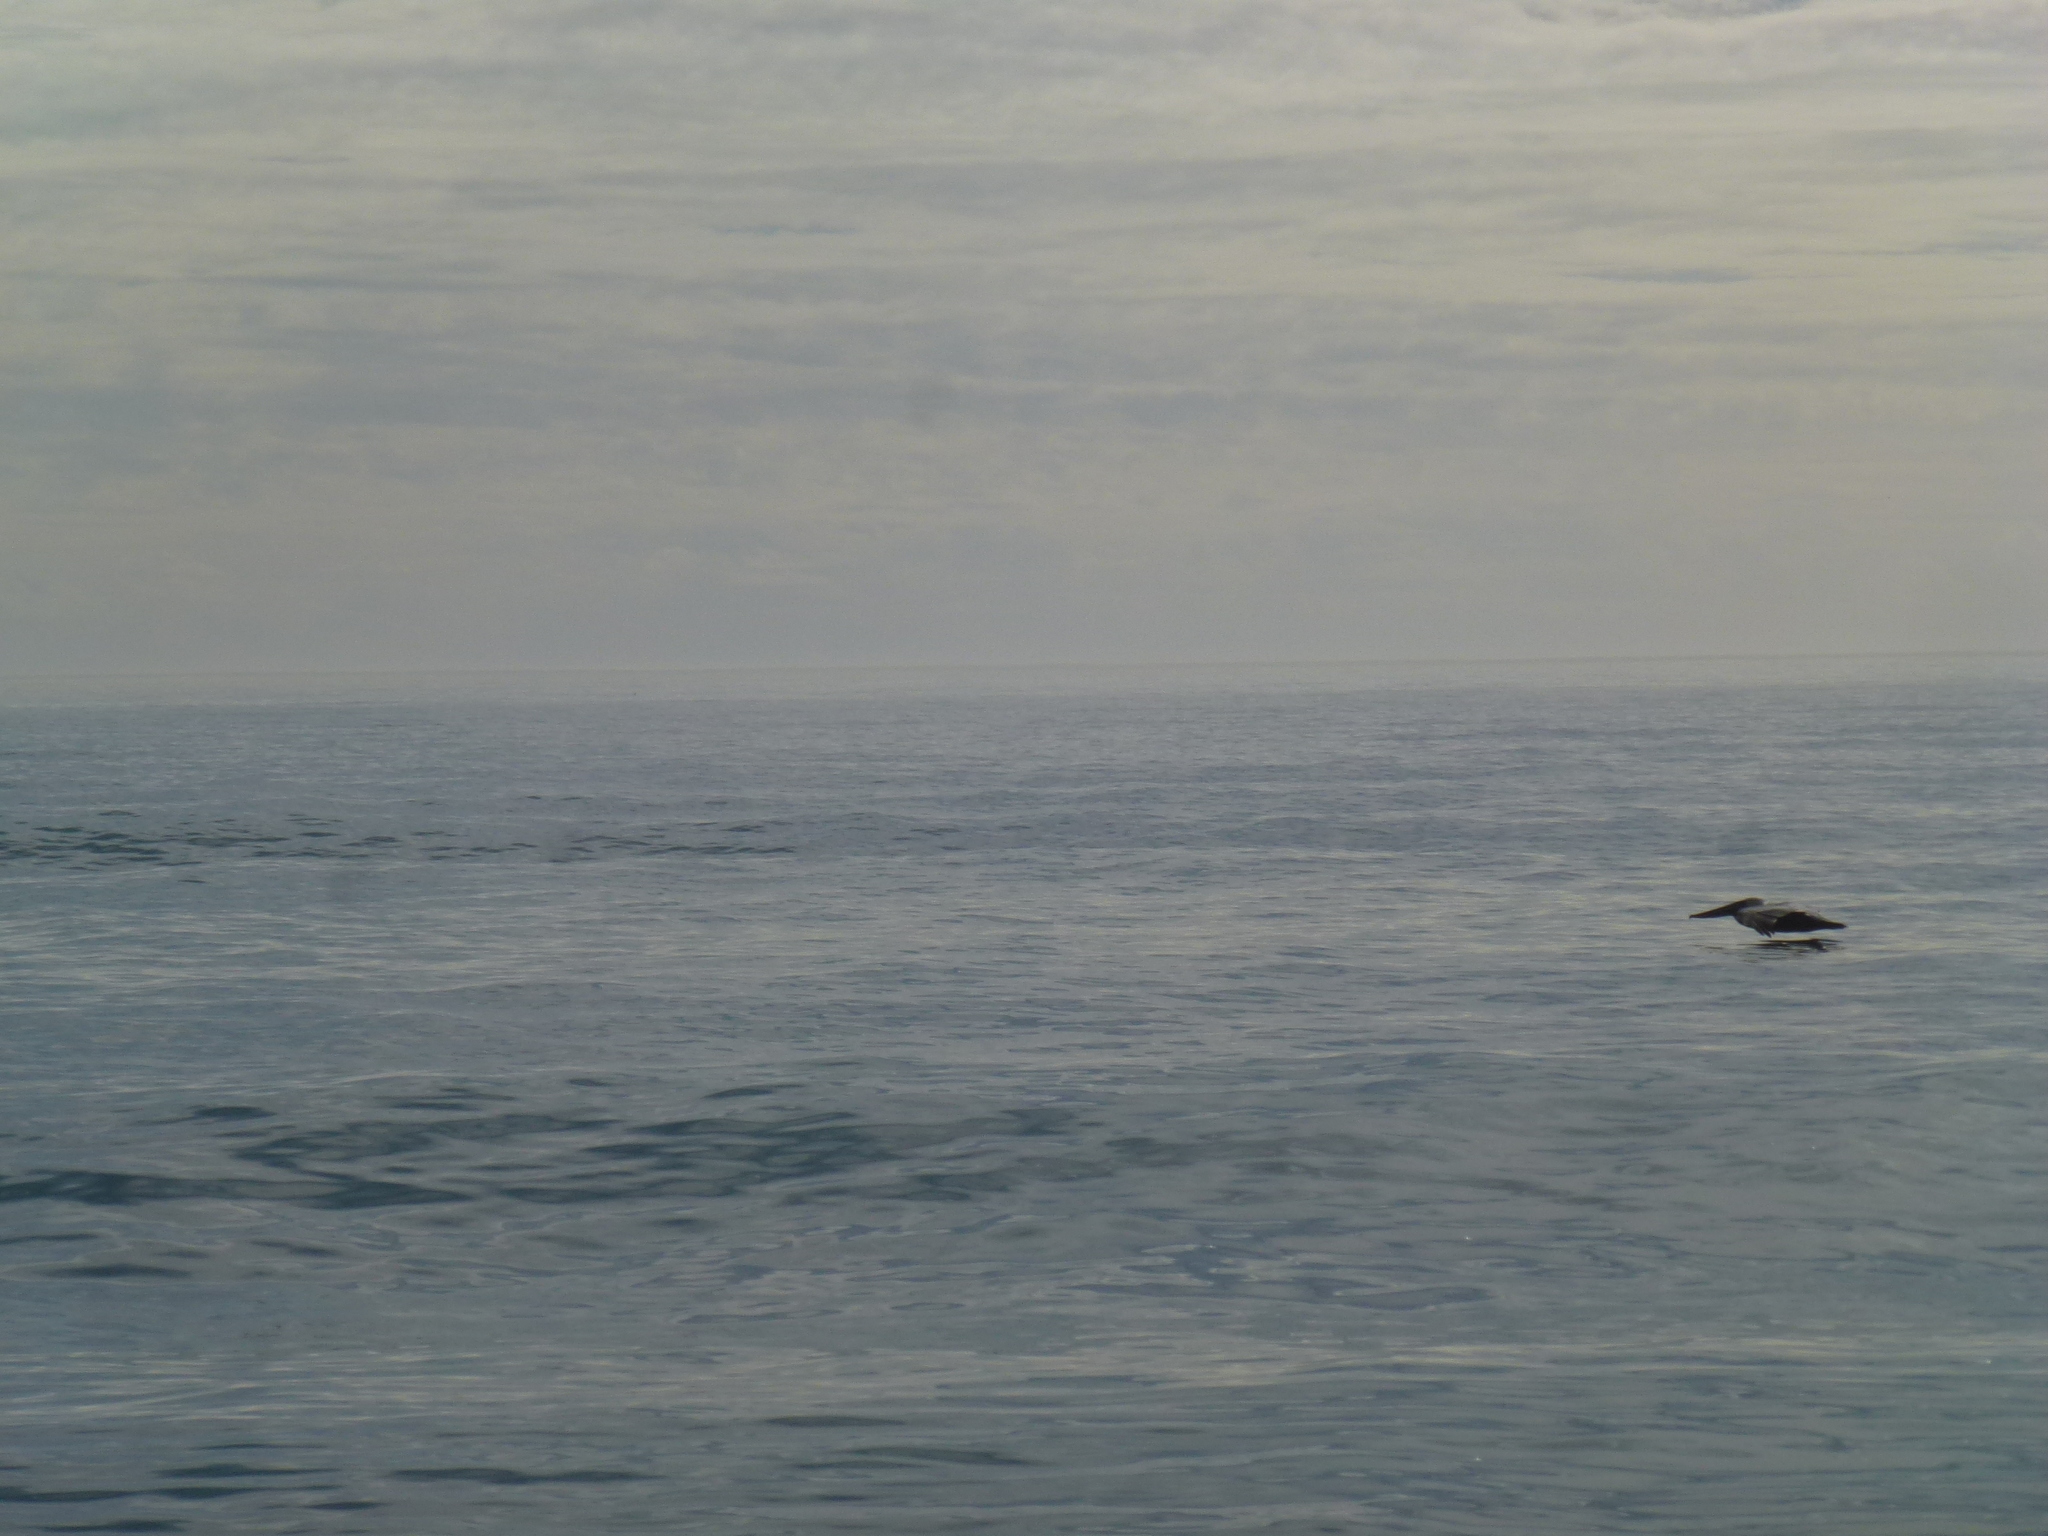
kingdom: Animalia
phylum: Chordata
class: Aves
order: Pelecaniformes
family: Pelecanidae
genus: Pelecanus
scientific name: Pelecanus occidentalis
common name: Brown pelican
